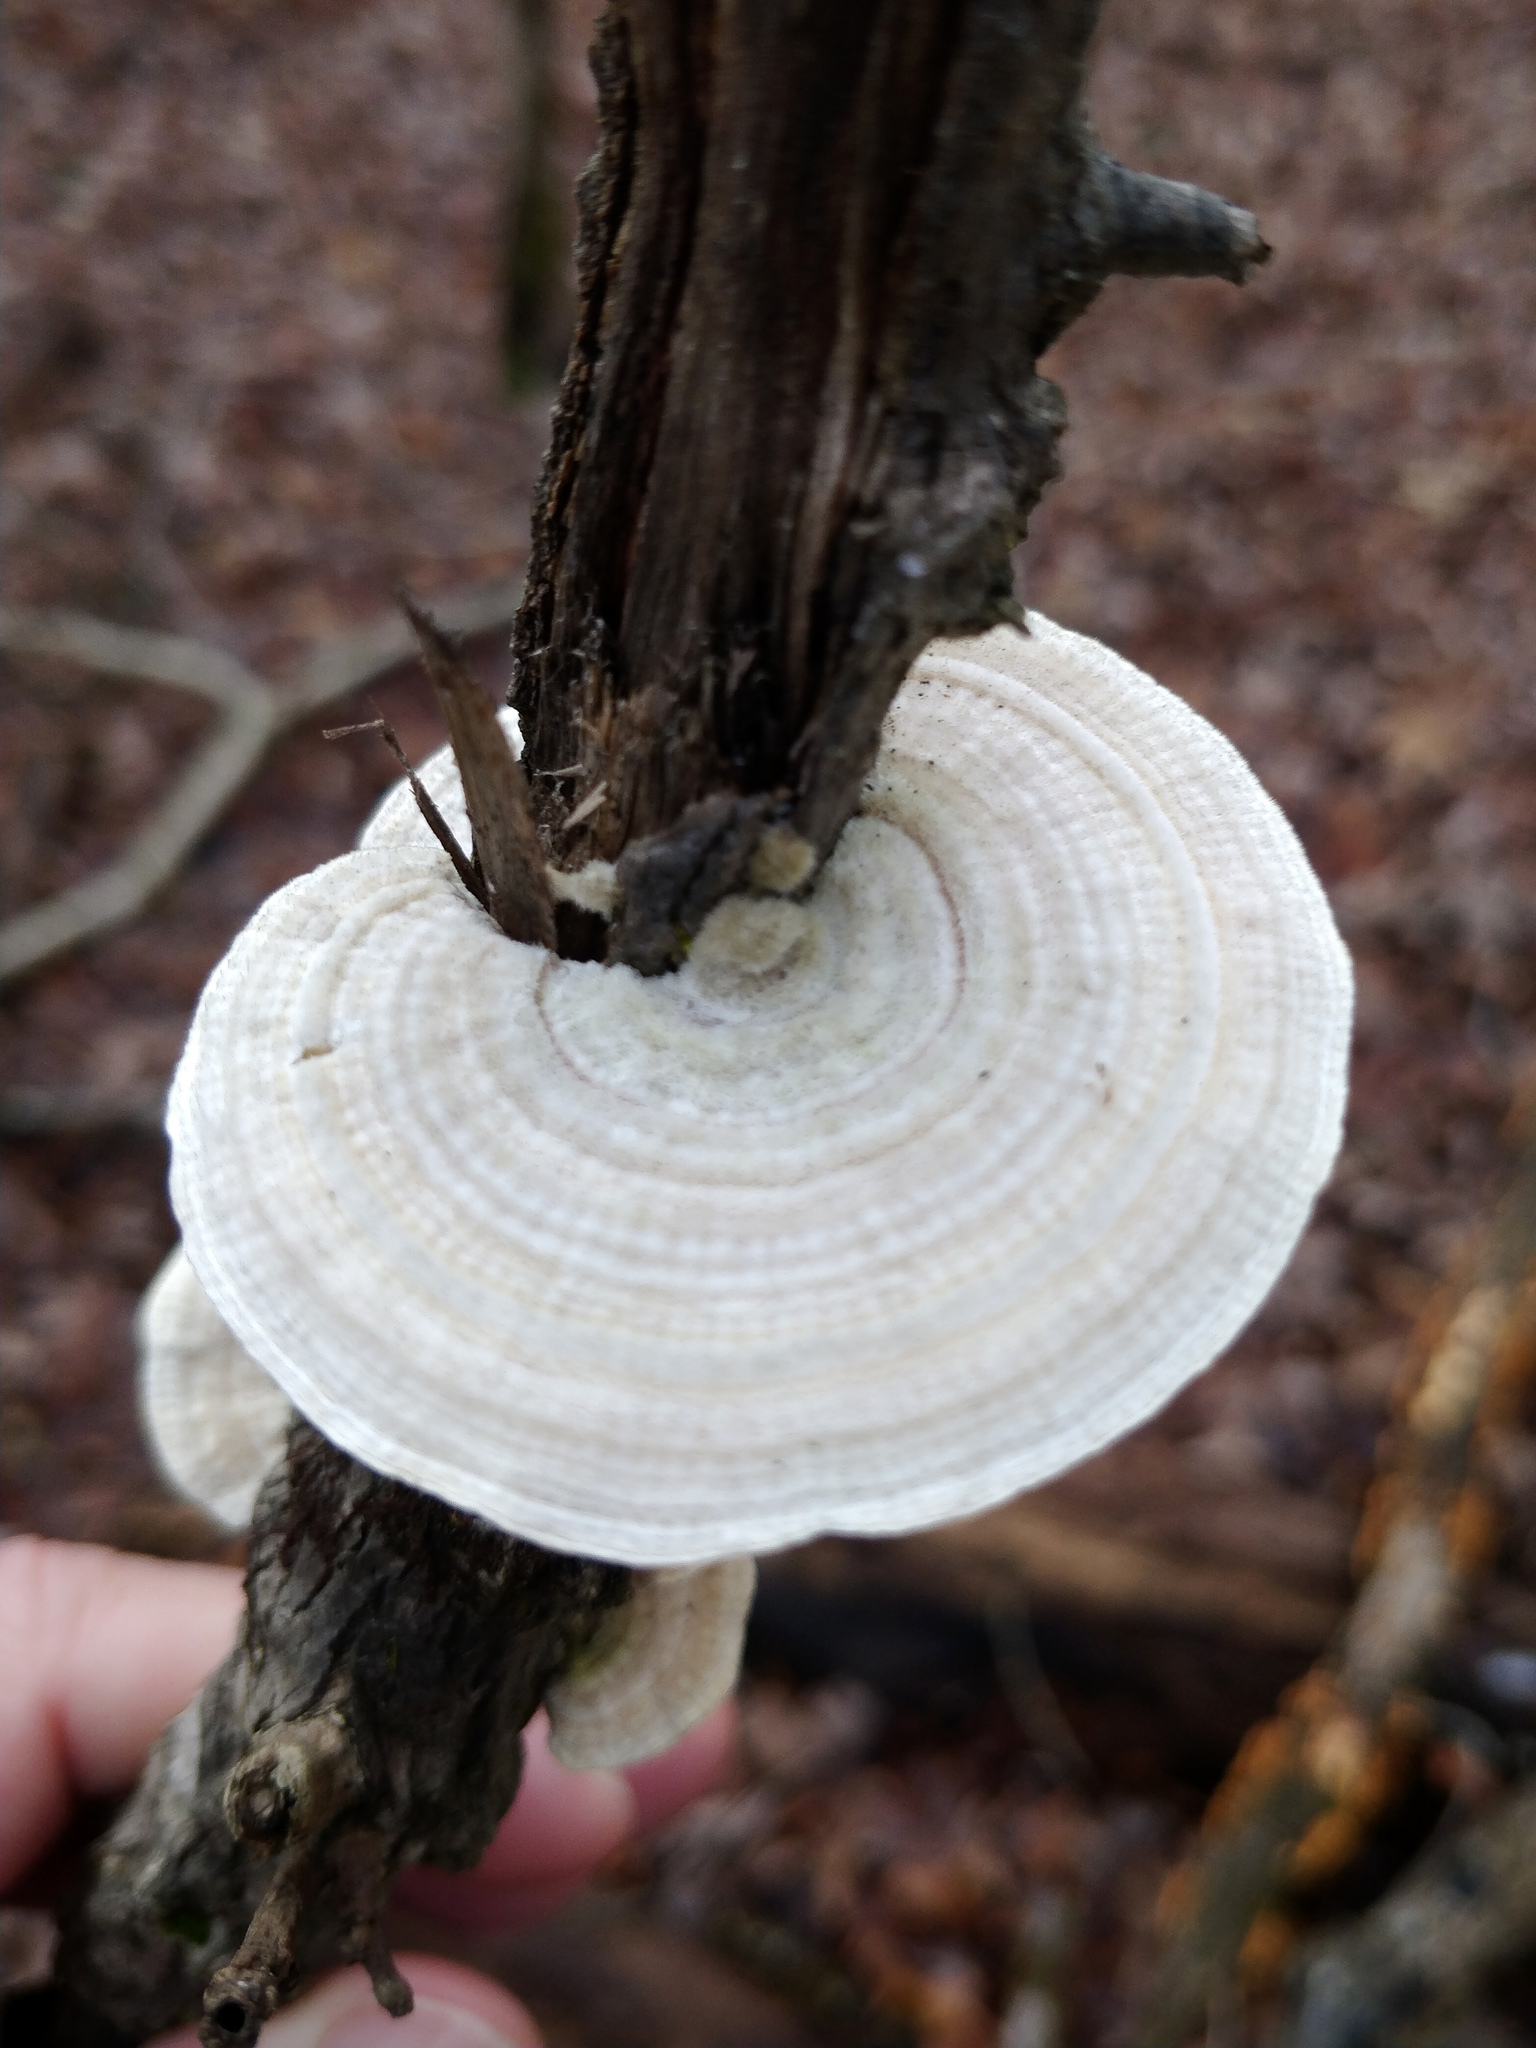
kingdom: Fungi
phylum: Basidiomycota
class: Agaricomycetes
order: Polyporales
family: Polyporaceae
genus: Lenzites
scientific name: Lenzites betulinus
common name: Birch mazegill
